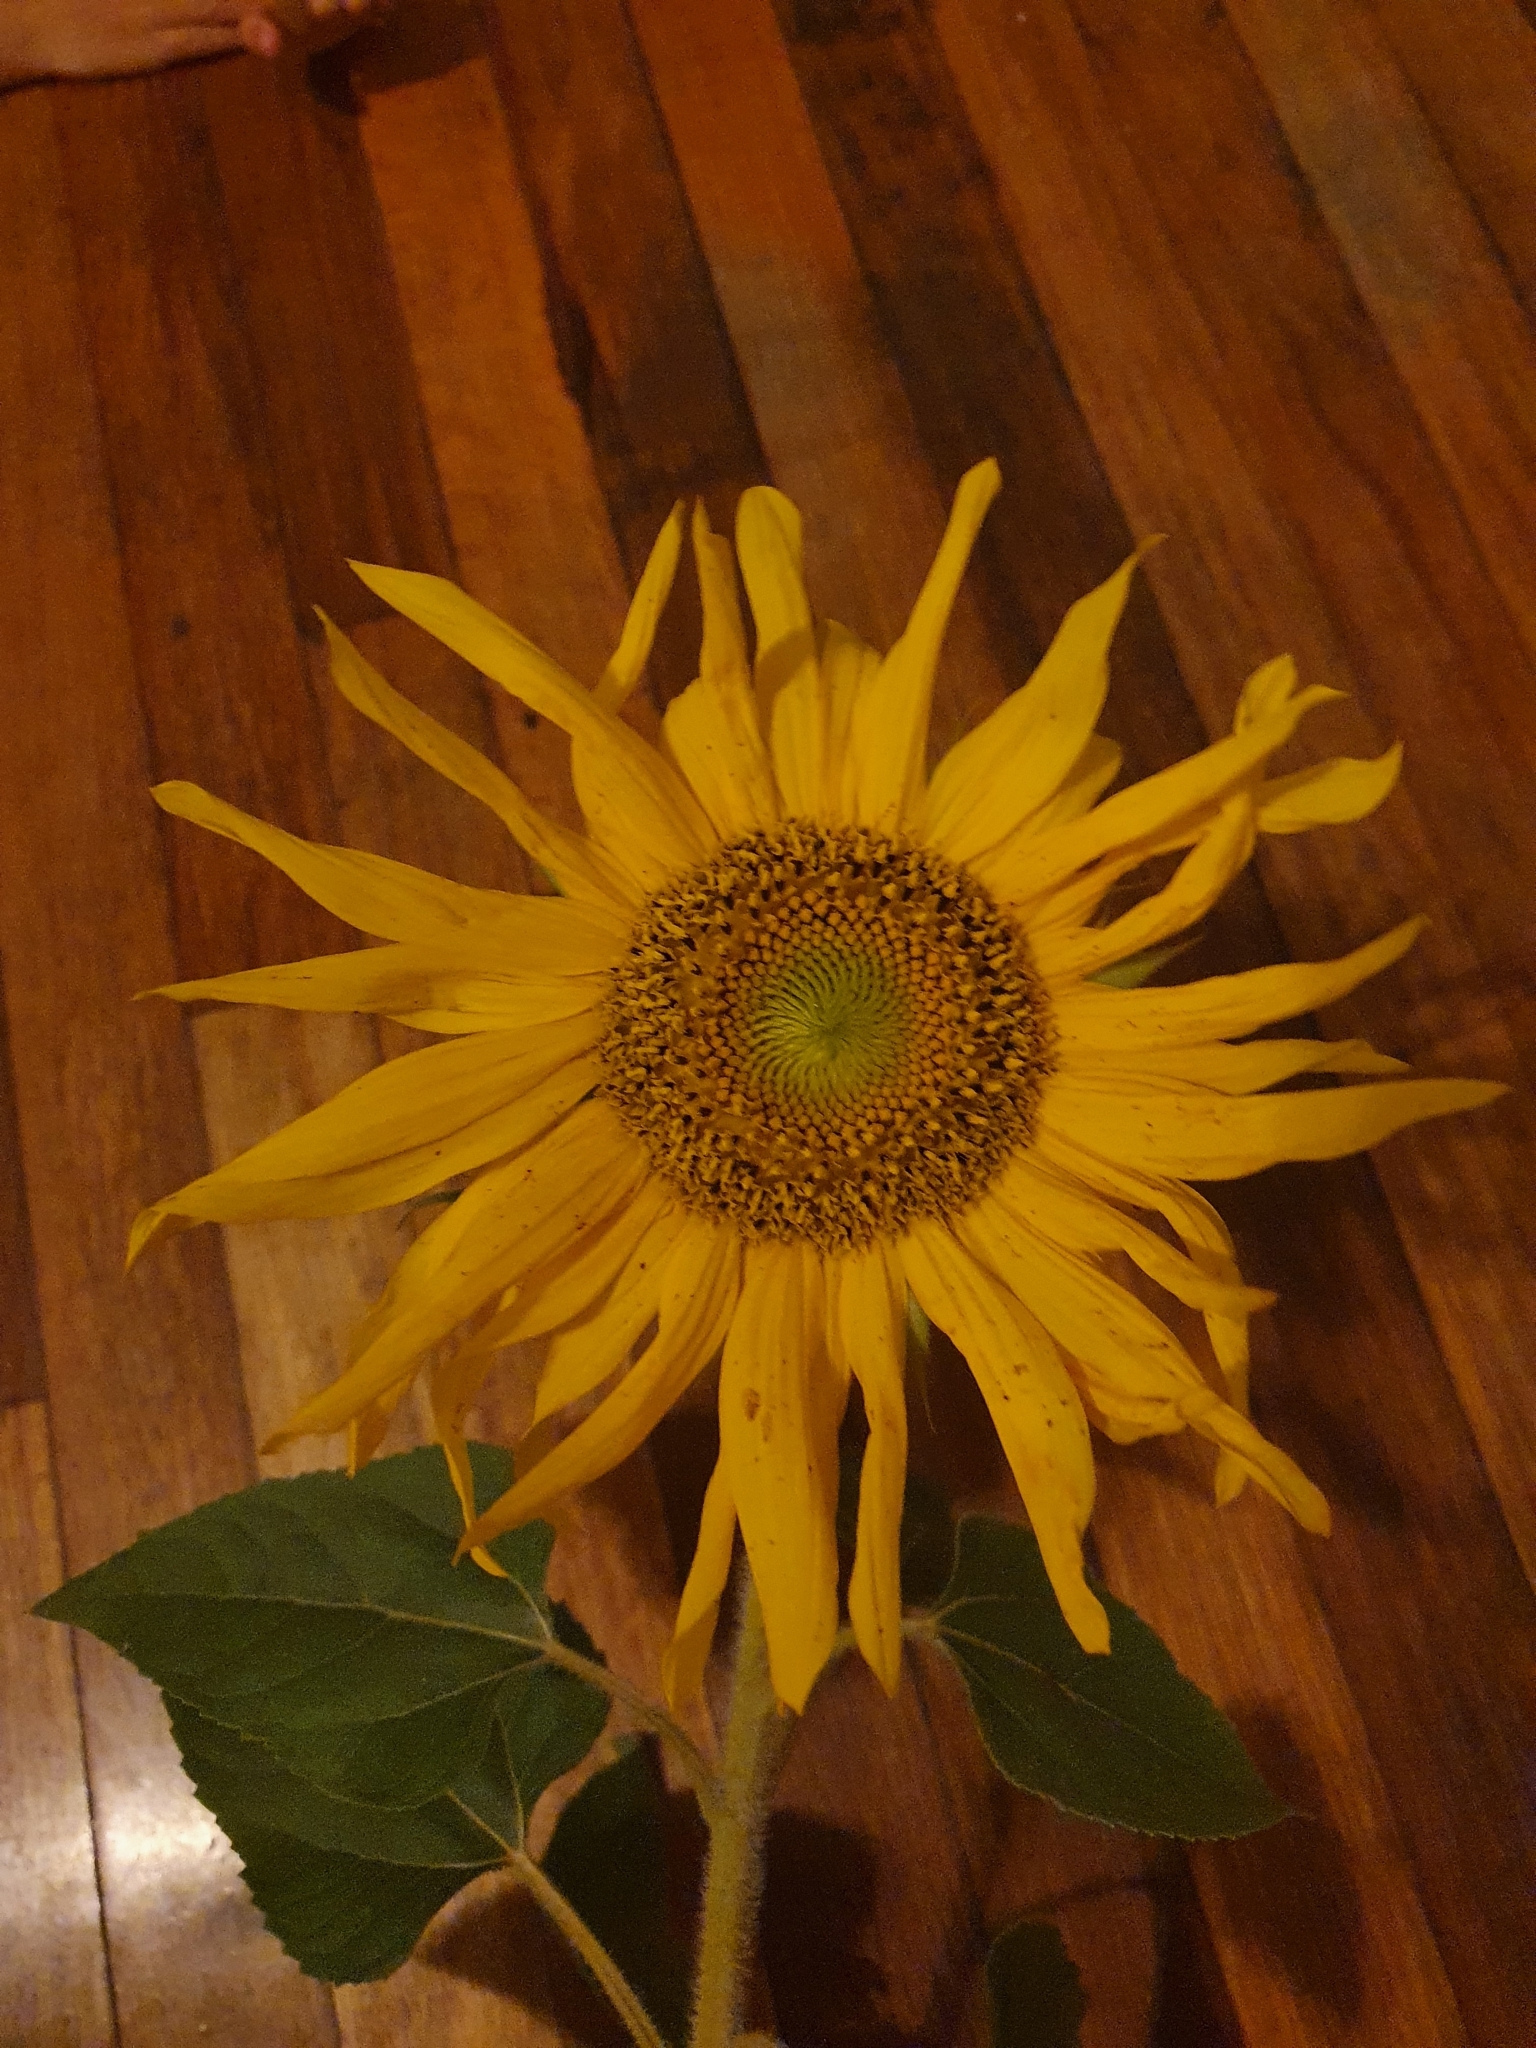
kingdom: Plantae
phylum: Tracheophyta
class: Magnoliopsida
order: Asterales
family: Asteraceae
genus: Helianthus
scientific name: Helianthus annuus
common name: Sunflower
